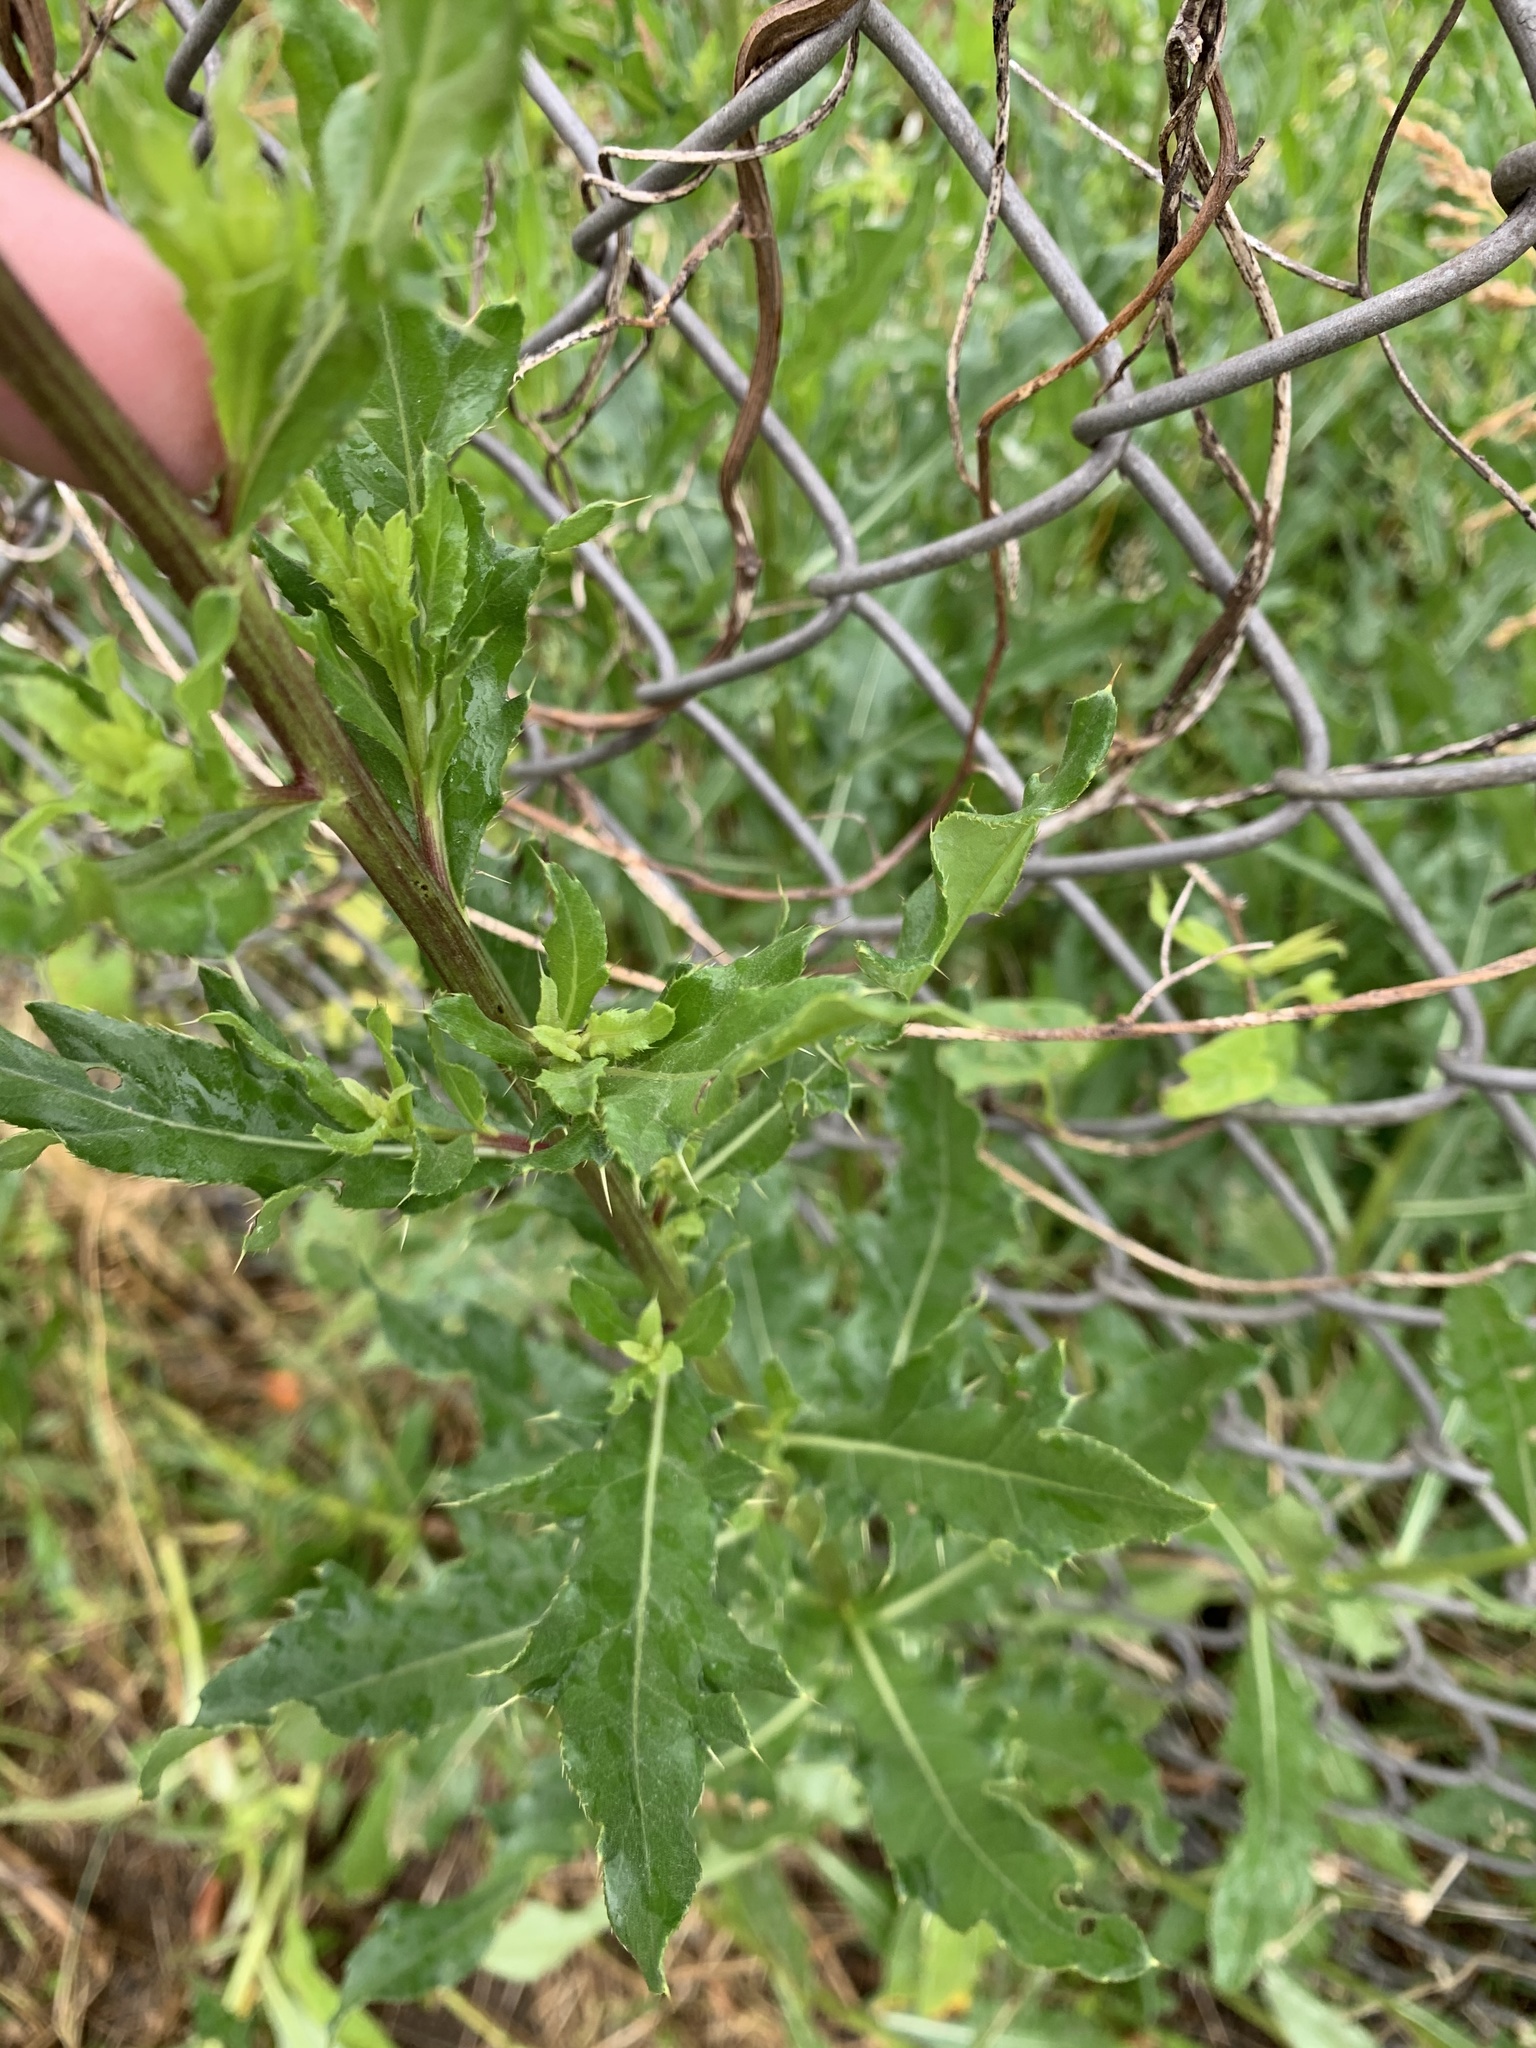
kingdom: Plantae
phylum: Tracheophyta
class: Magnoliopsida
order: Asterales
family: Asteraceae
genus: Cirsium
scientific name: Cirsium arvense
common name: Creeping thistle
